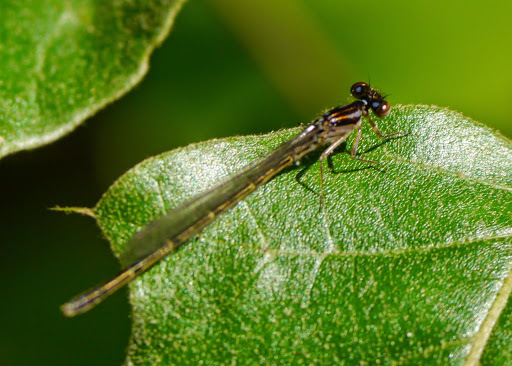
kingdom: Animalia
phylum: Arthropoda
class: Insecta
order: Odonata
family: Coenagrionidae
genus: Ischnura
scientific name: Ischnura posita
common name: Fragile forktail
